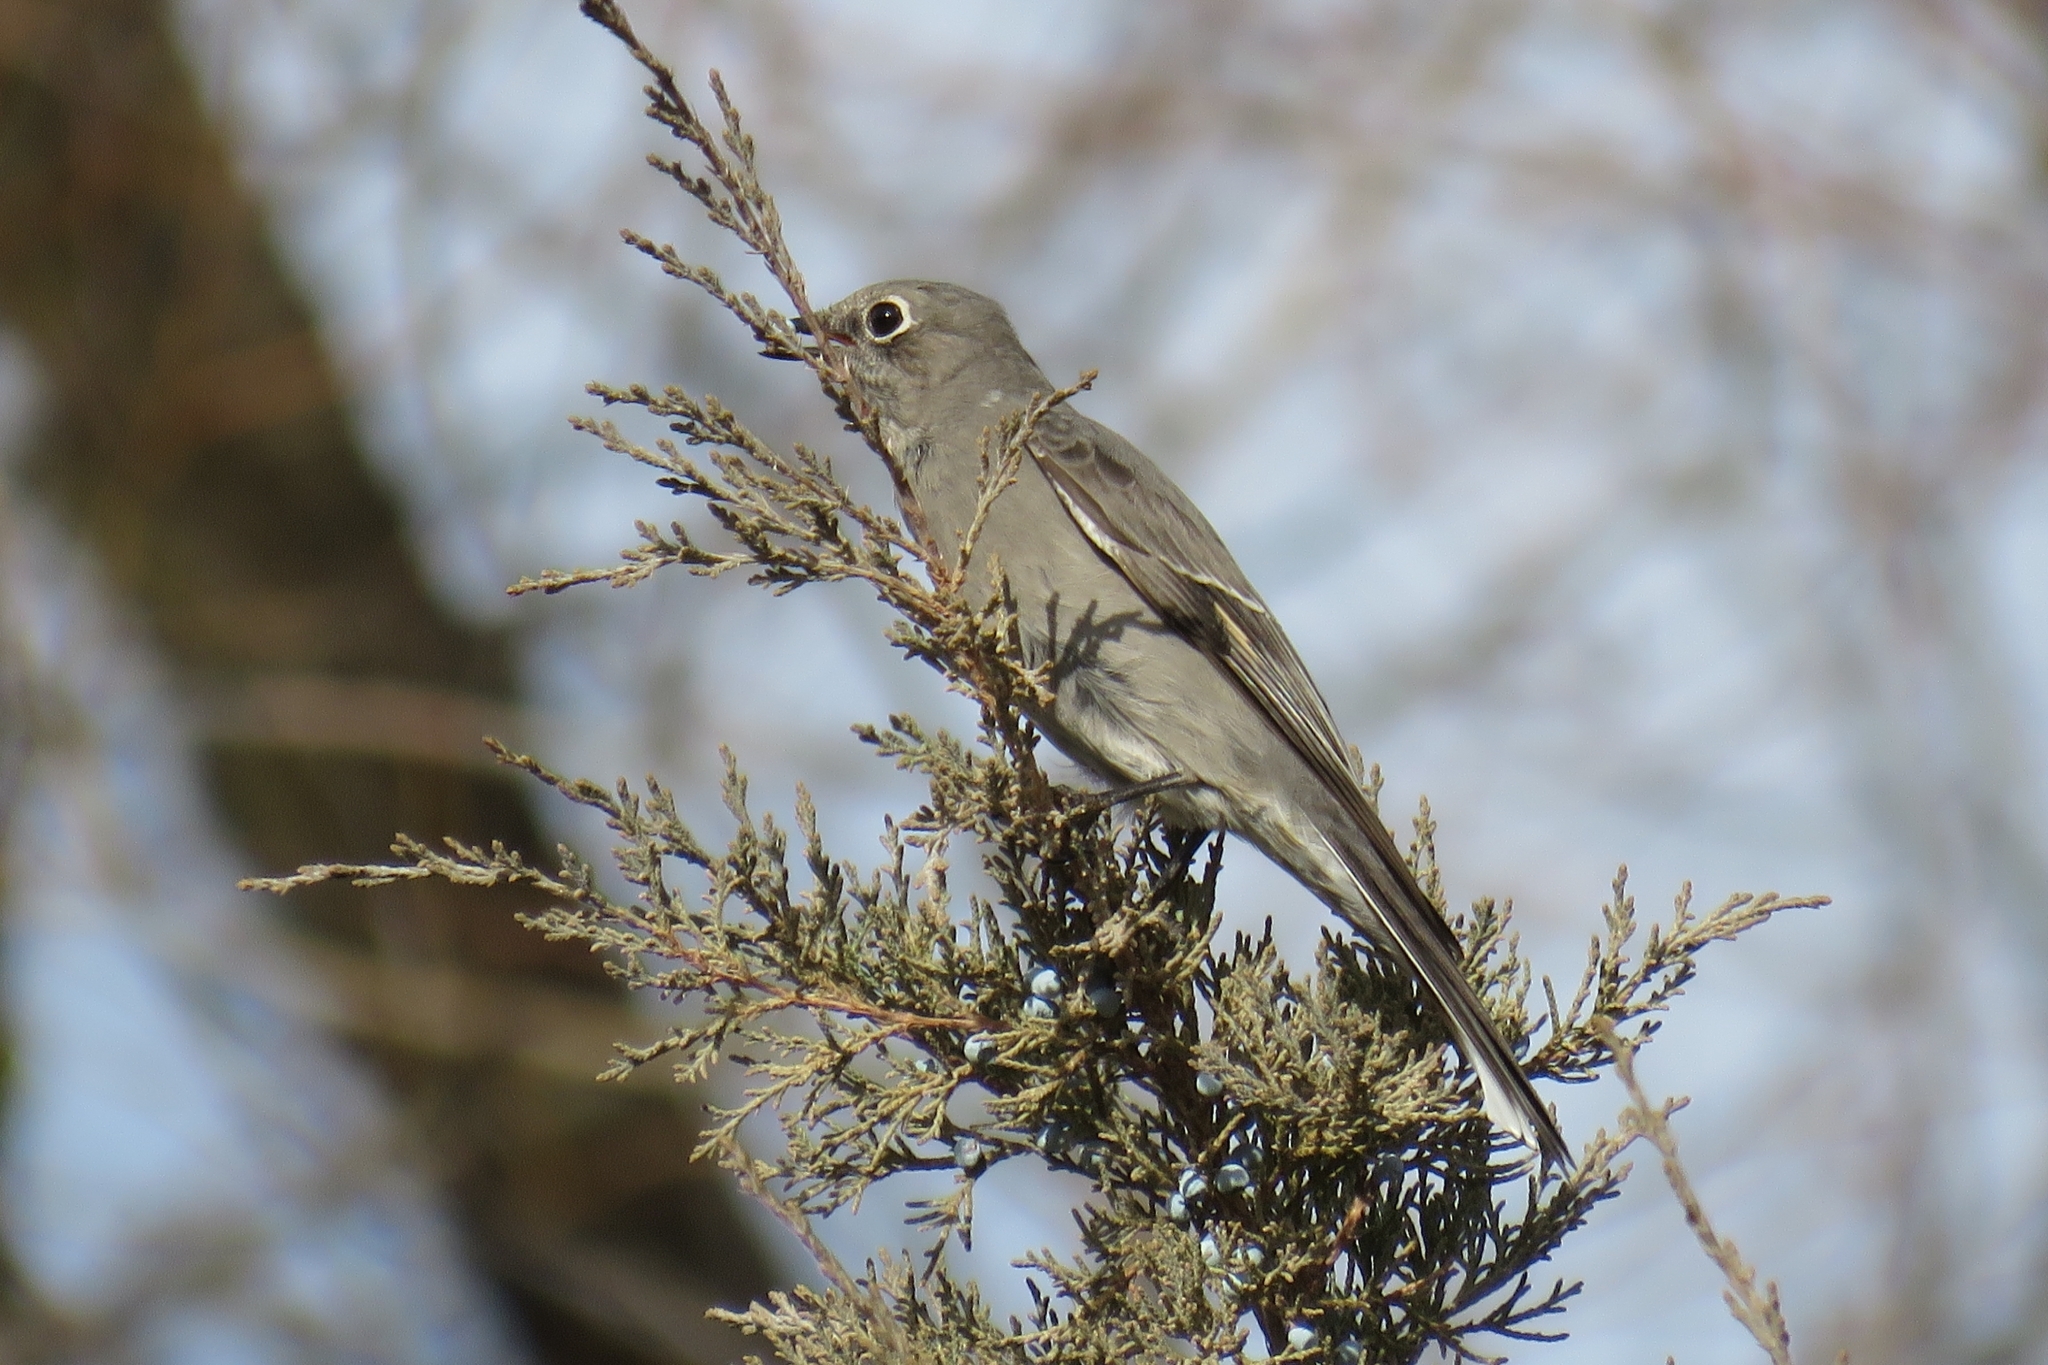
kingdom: Animalia
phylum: Chordata
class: Aves
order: Passeriformes
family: Turdidae
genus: Myadestes
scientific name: Myadestes townsendi
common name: Townsend's solitaire
